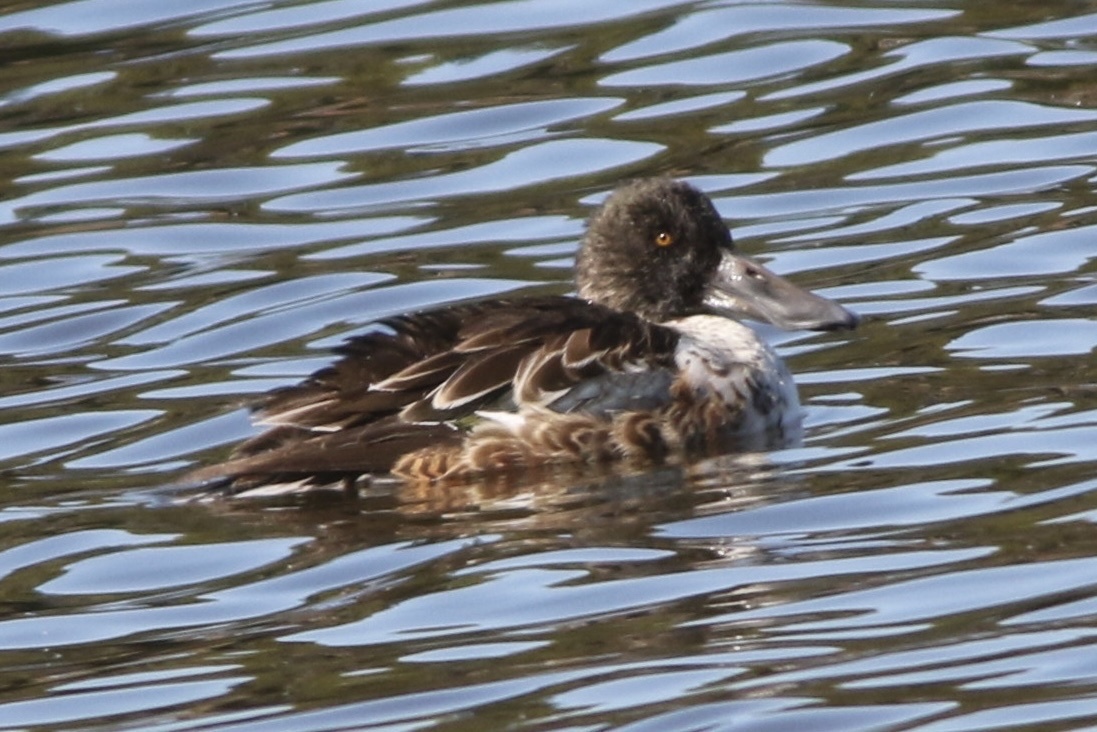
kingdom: Animalia
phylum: Chordata
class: Aves
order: Anseriformes
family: Anatidae
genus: Spatula
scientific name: Spatula clypeata
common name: Northern shoveler
